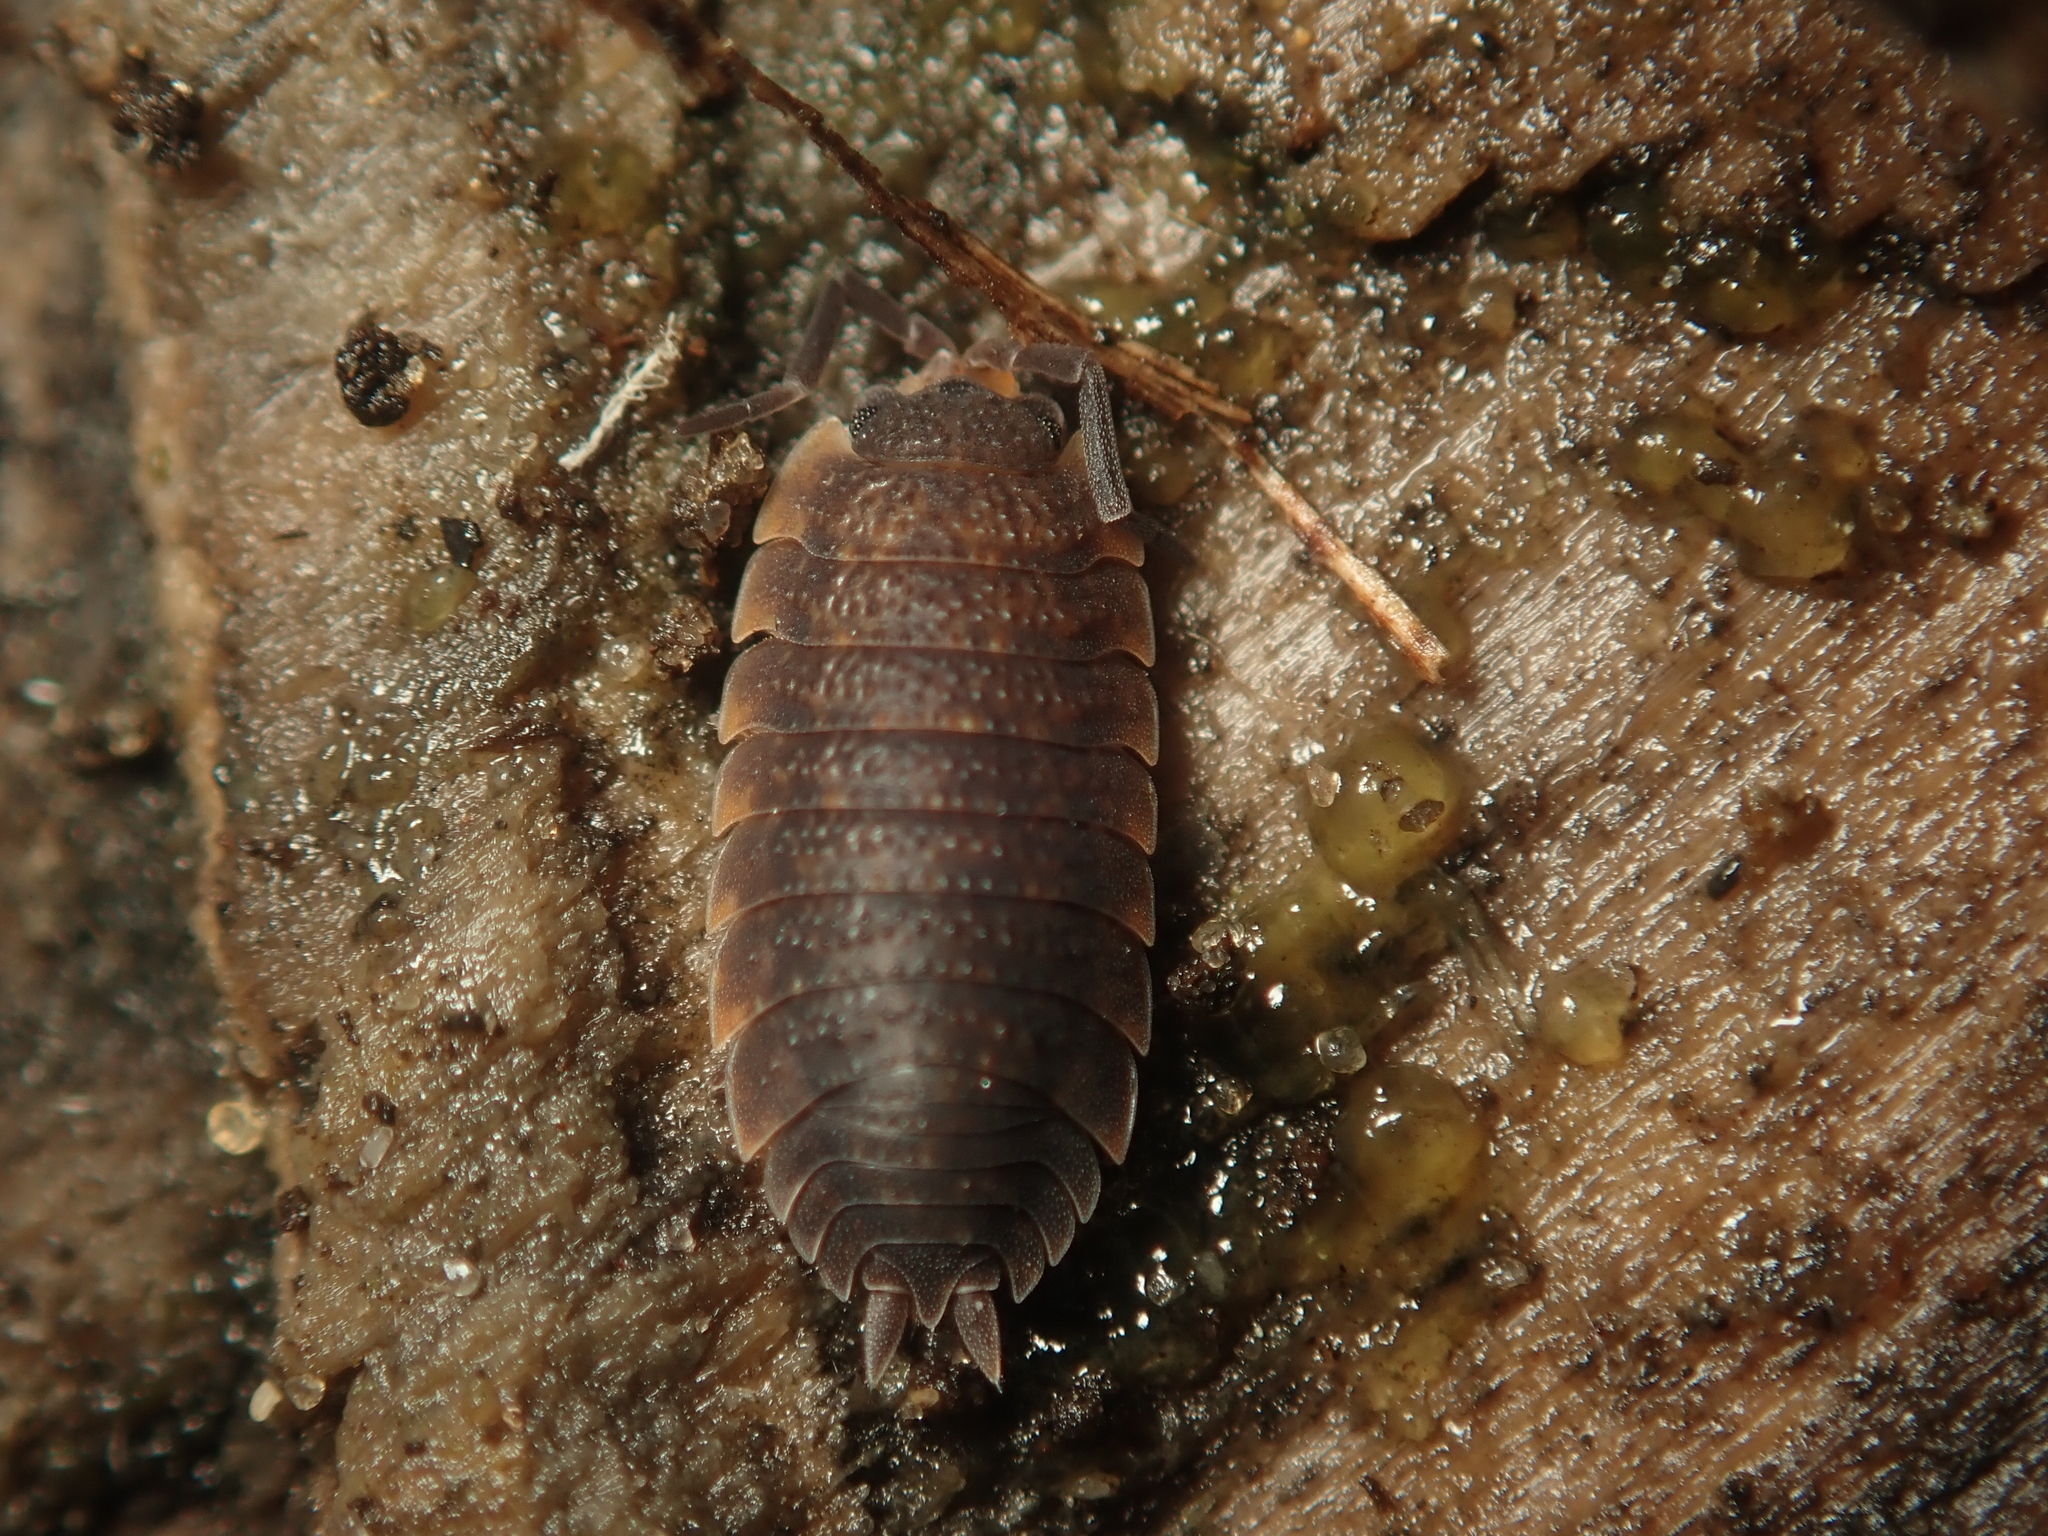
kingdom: Animalia
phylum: Arthropoda
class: Malacostraca
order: Isopoda
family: Porcellionidae
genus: Porcellio
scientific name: Porcellio scaber
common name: Common rough woodlouse
